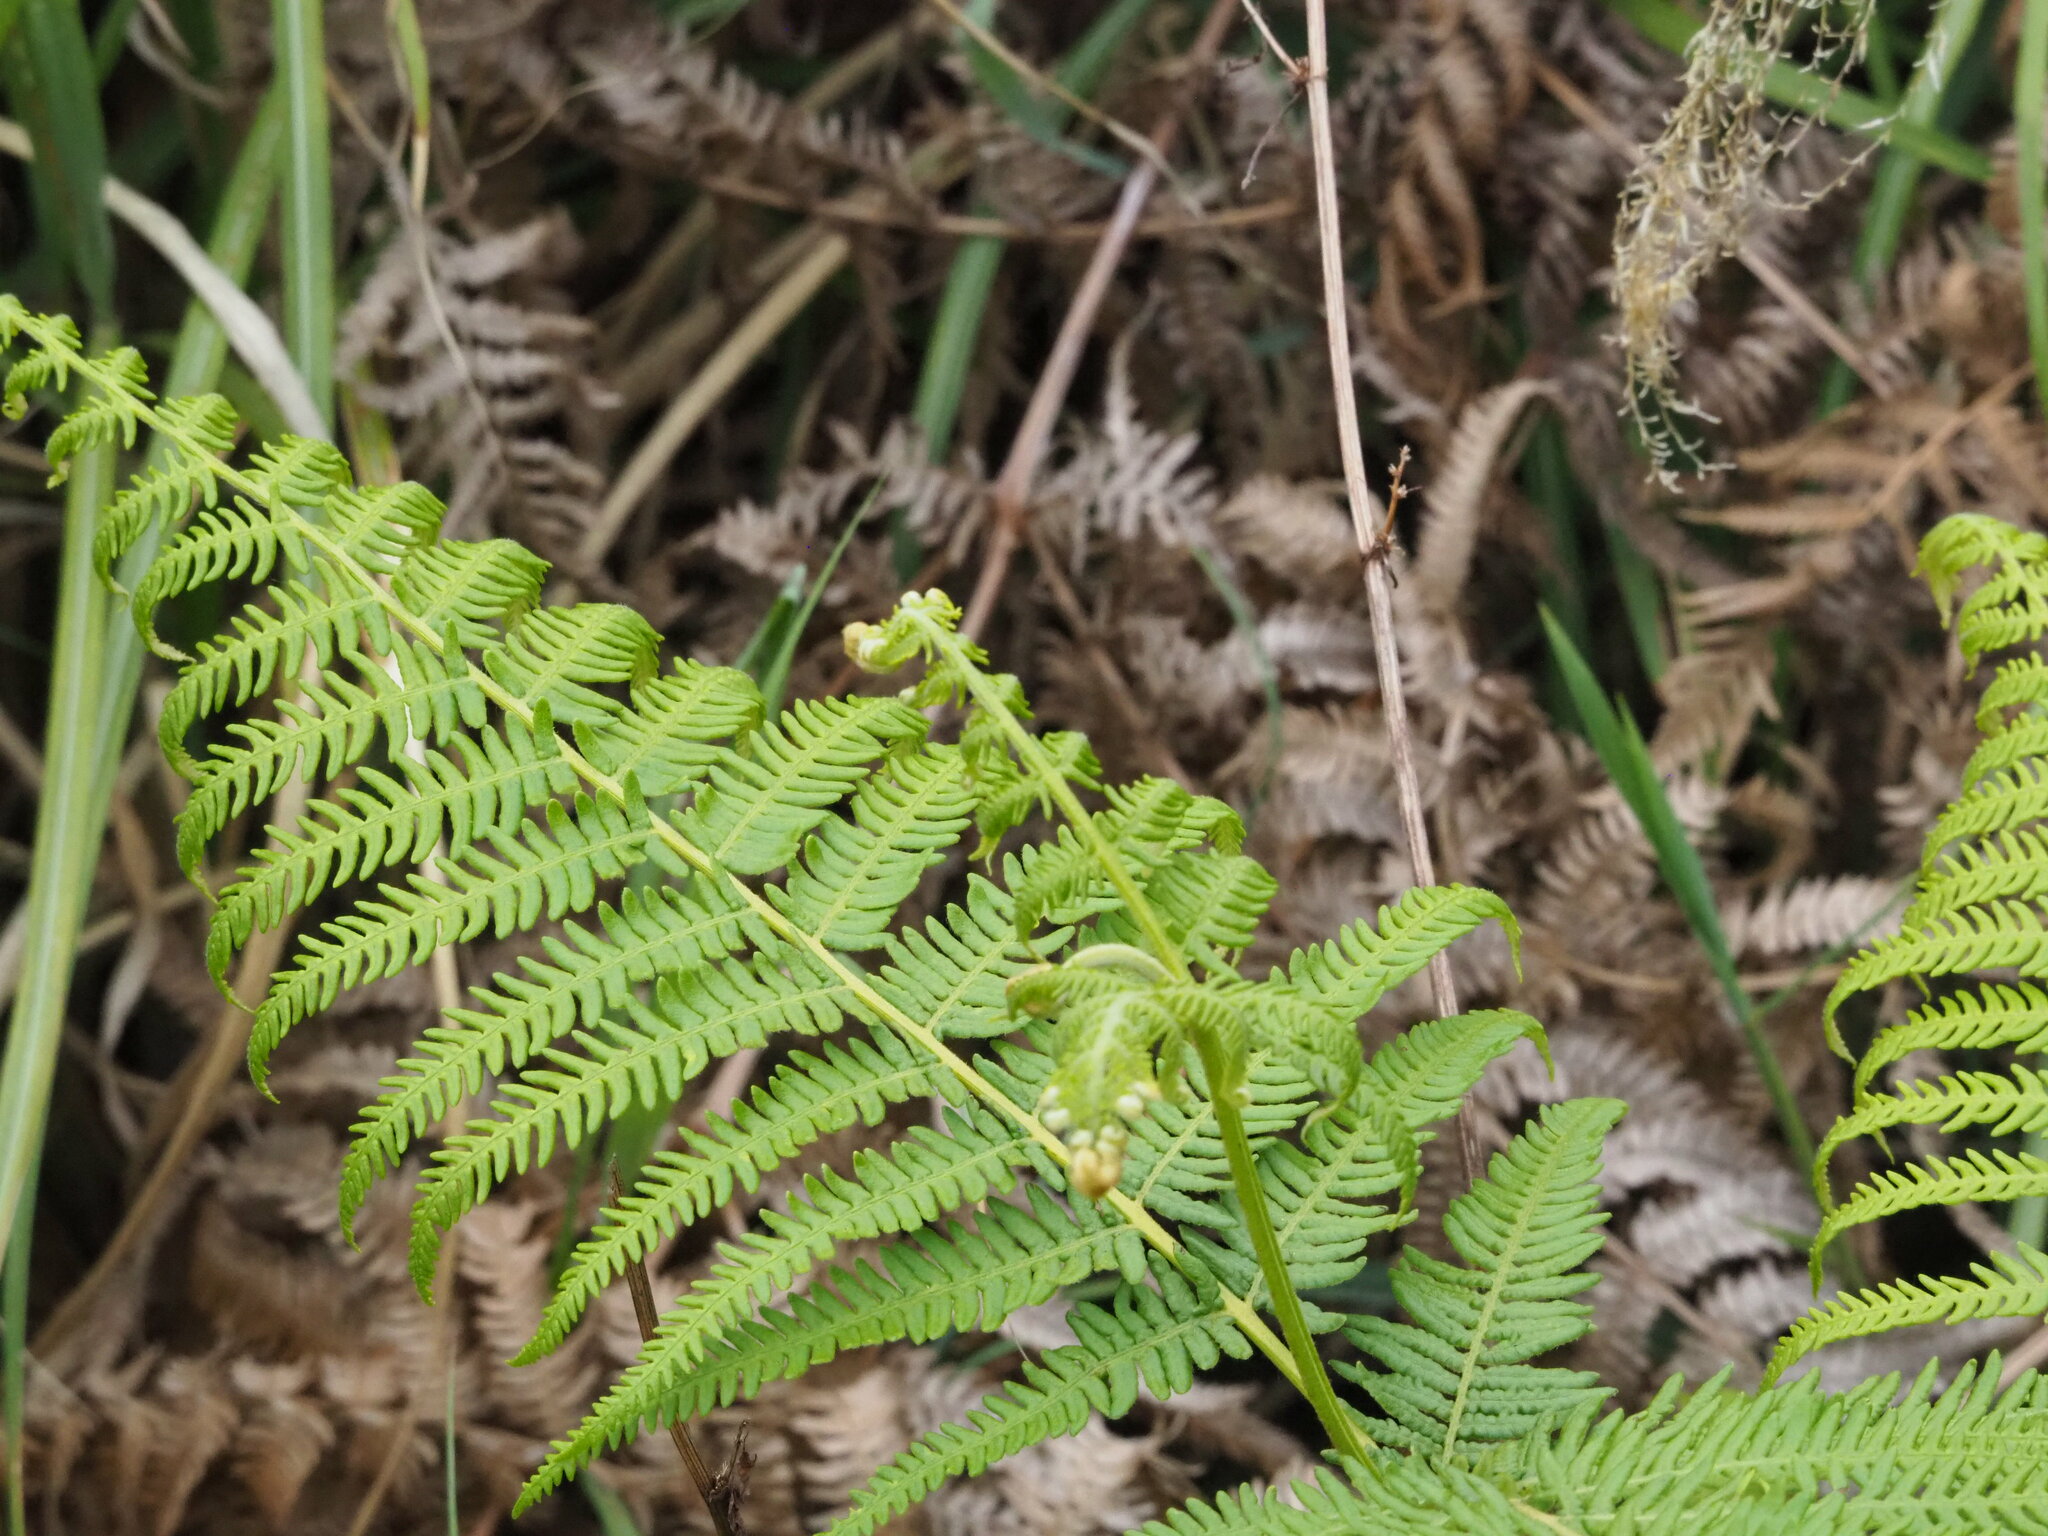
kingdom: Plantae
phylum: Tracheophyta
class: Polypodiopsida
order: Polypodiales
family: Dennstaedtiaceae
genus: Pteridium
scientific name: Pteridium aquilinum
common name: Bracken
